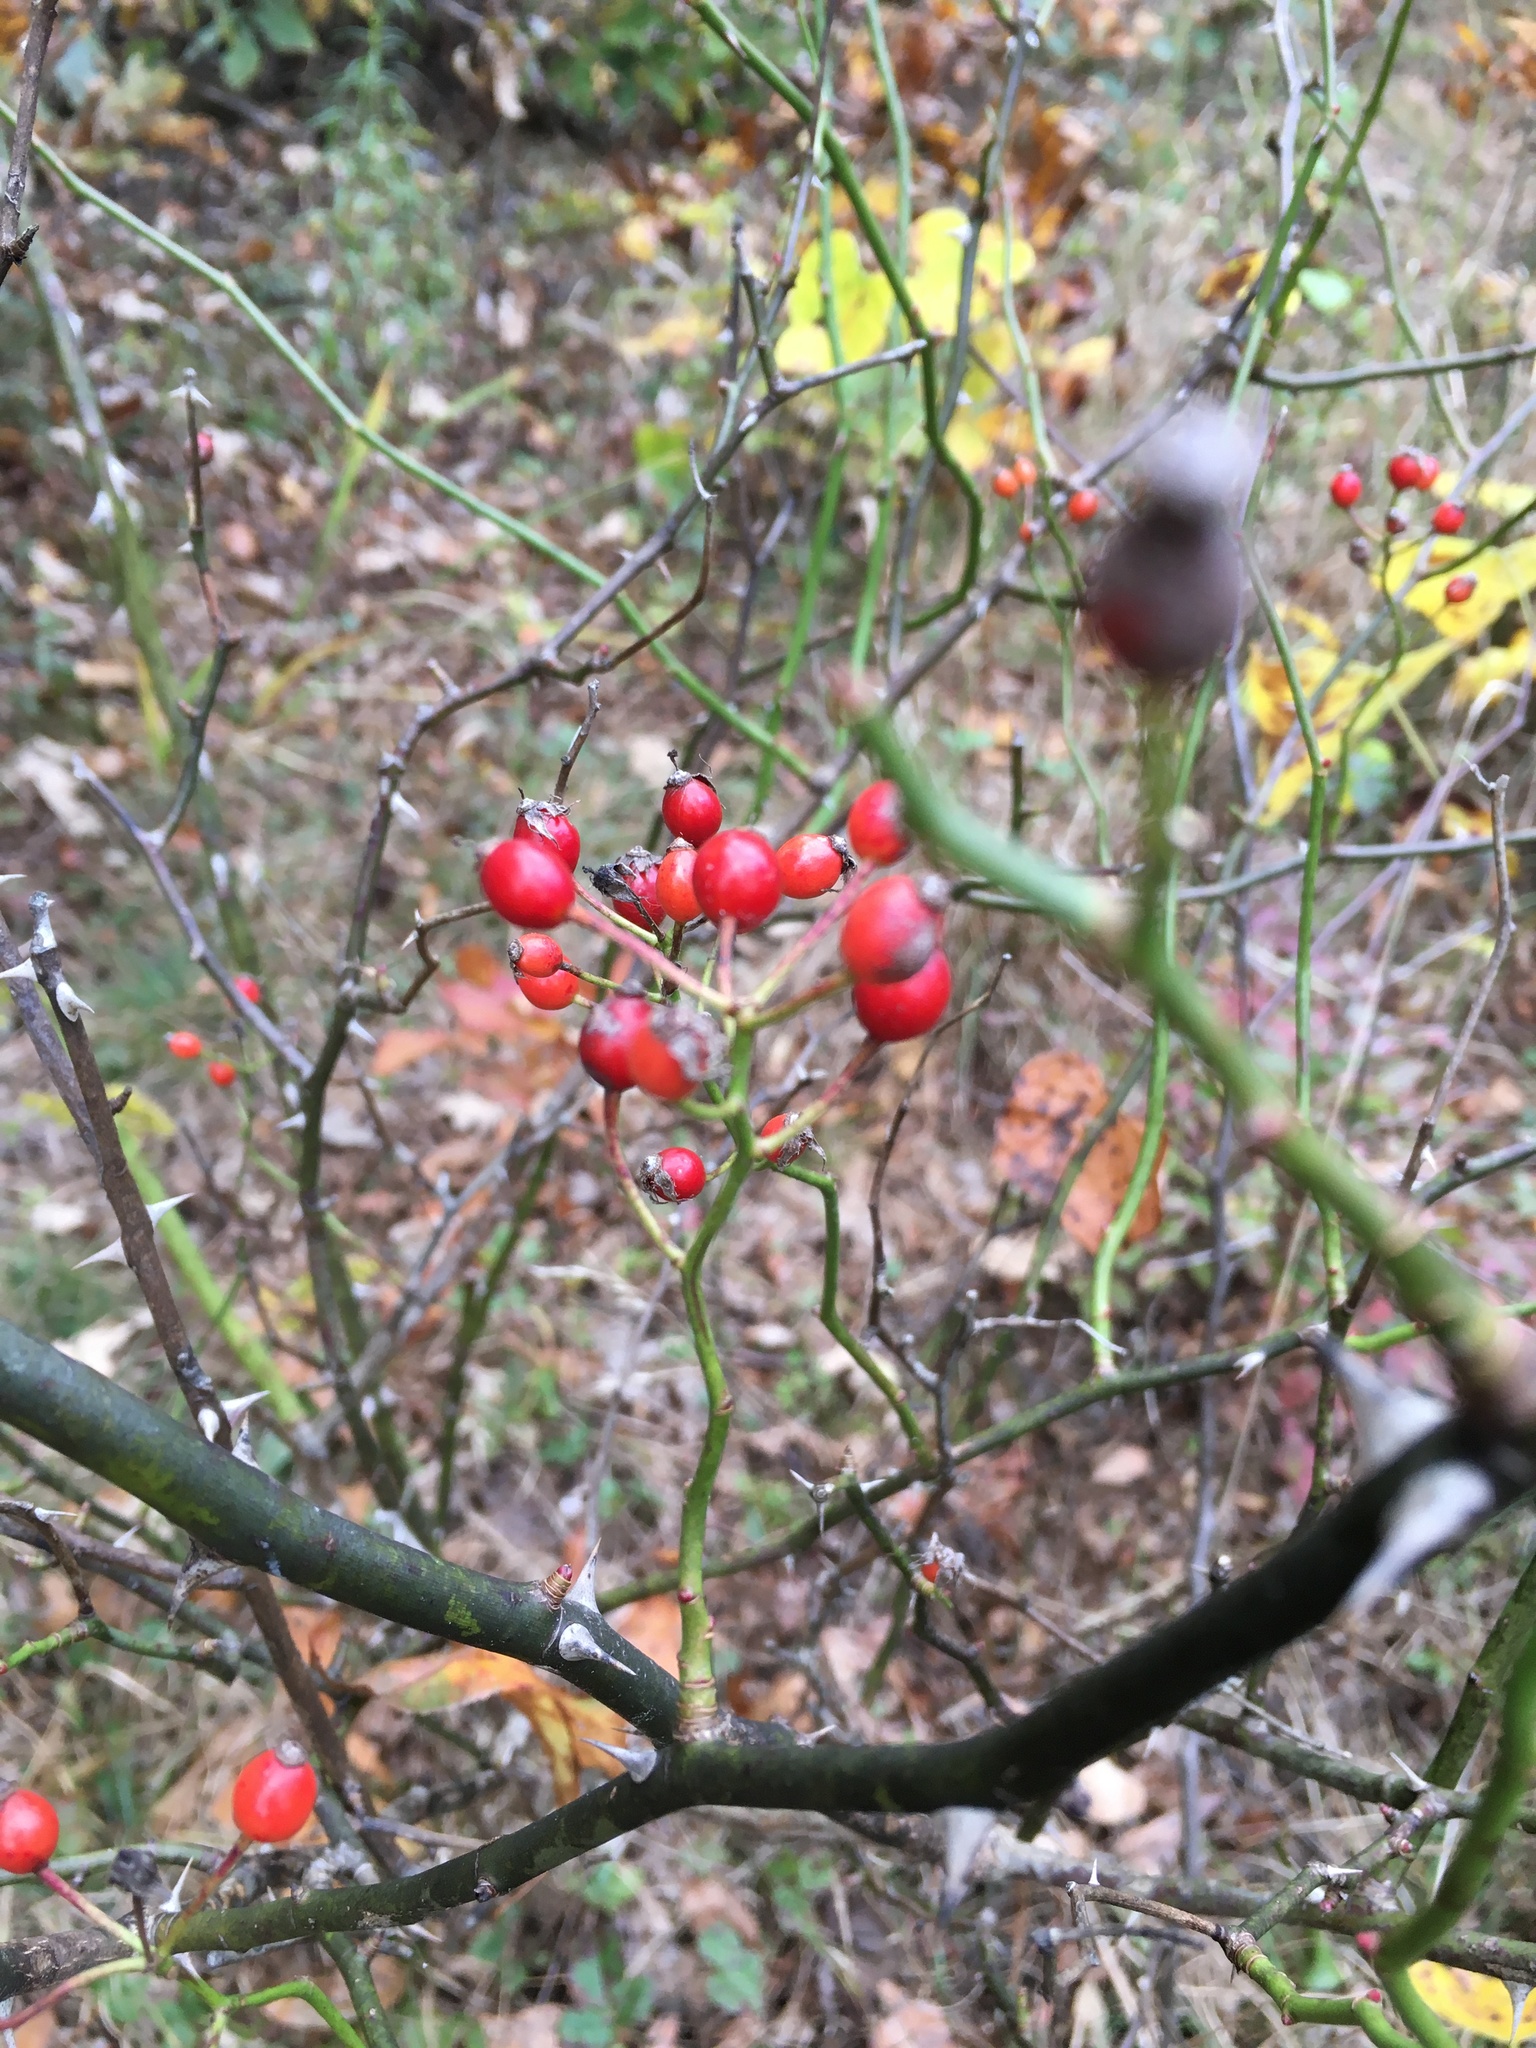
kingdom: Plantae
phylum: Tracheophyta
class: Magnoliopsida
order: Rosales
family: Rosaceae
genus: Rosa
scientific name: Rosa multiflora
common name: Multiflora rose
